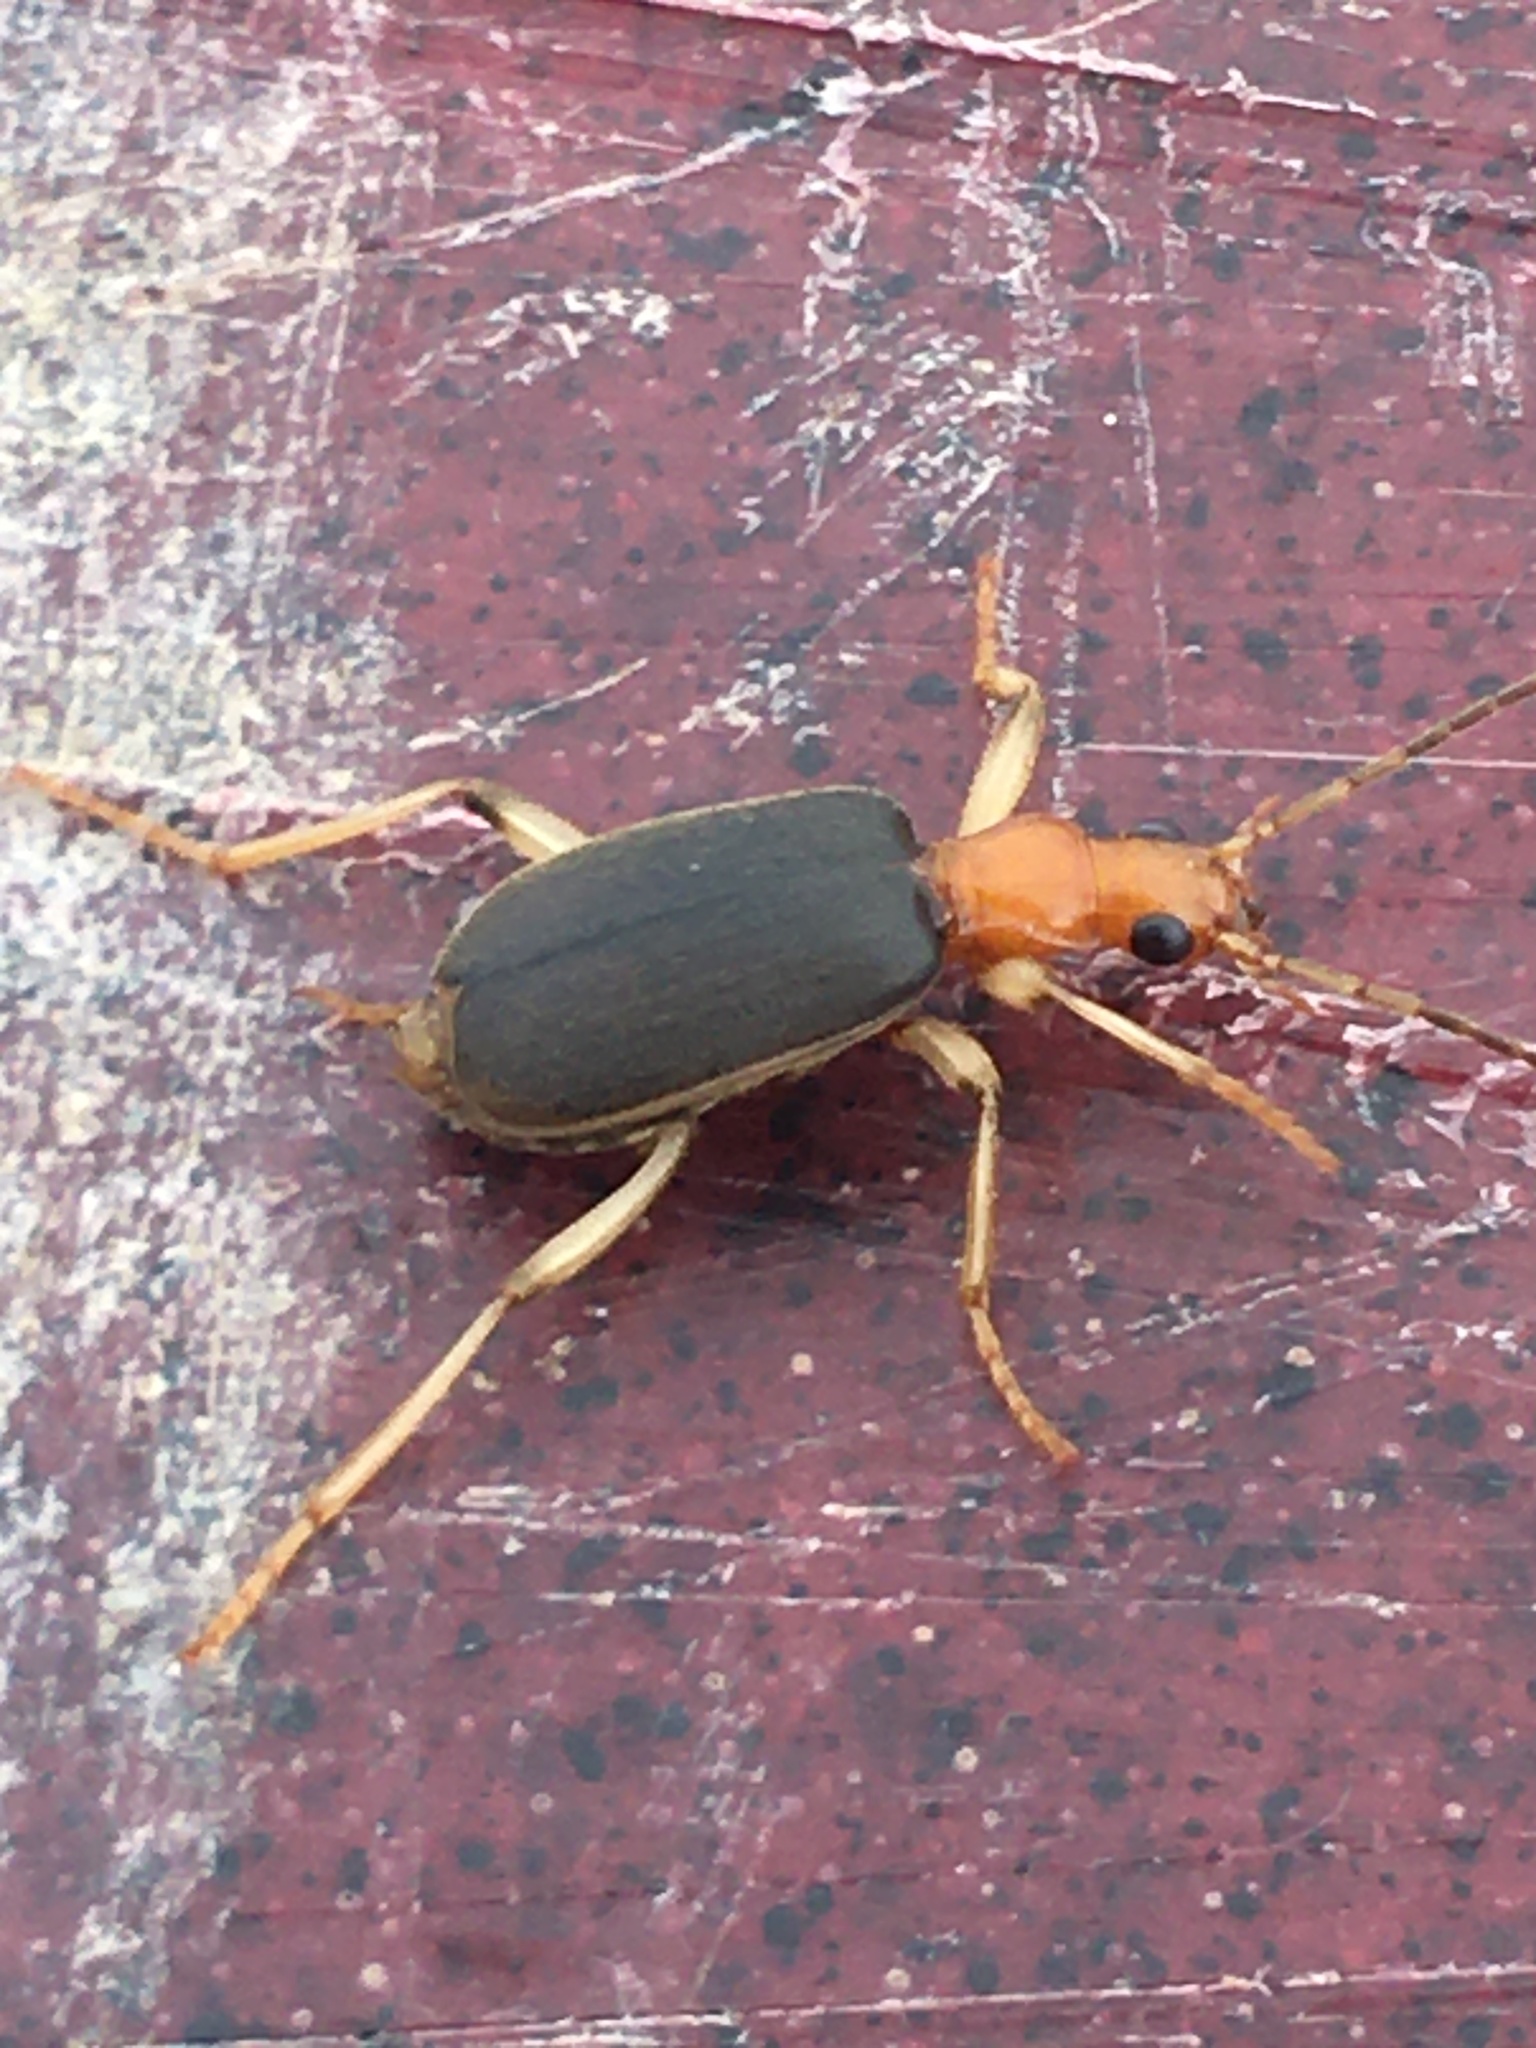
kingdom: Animalia
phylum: Arthropoda
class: Insecta
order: Coleoptera
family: Carabidae
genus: Brachinus
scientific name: Brachinus adustipennis
